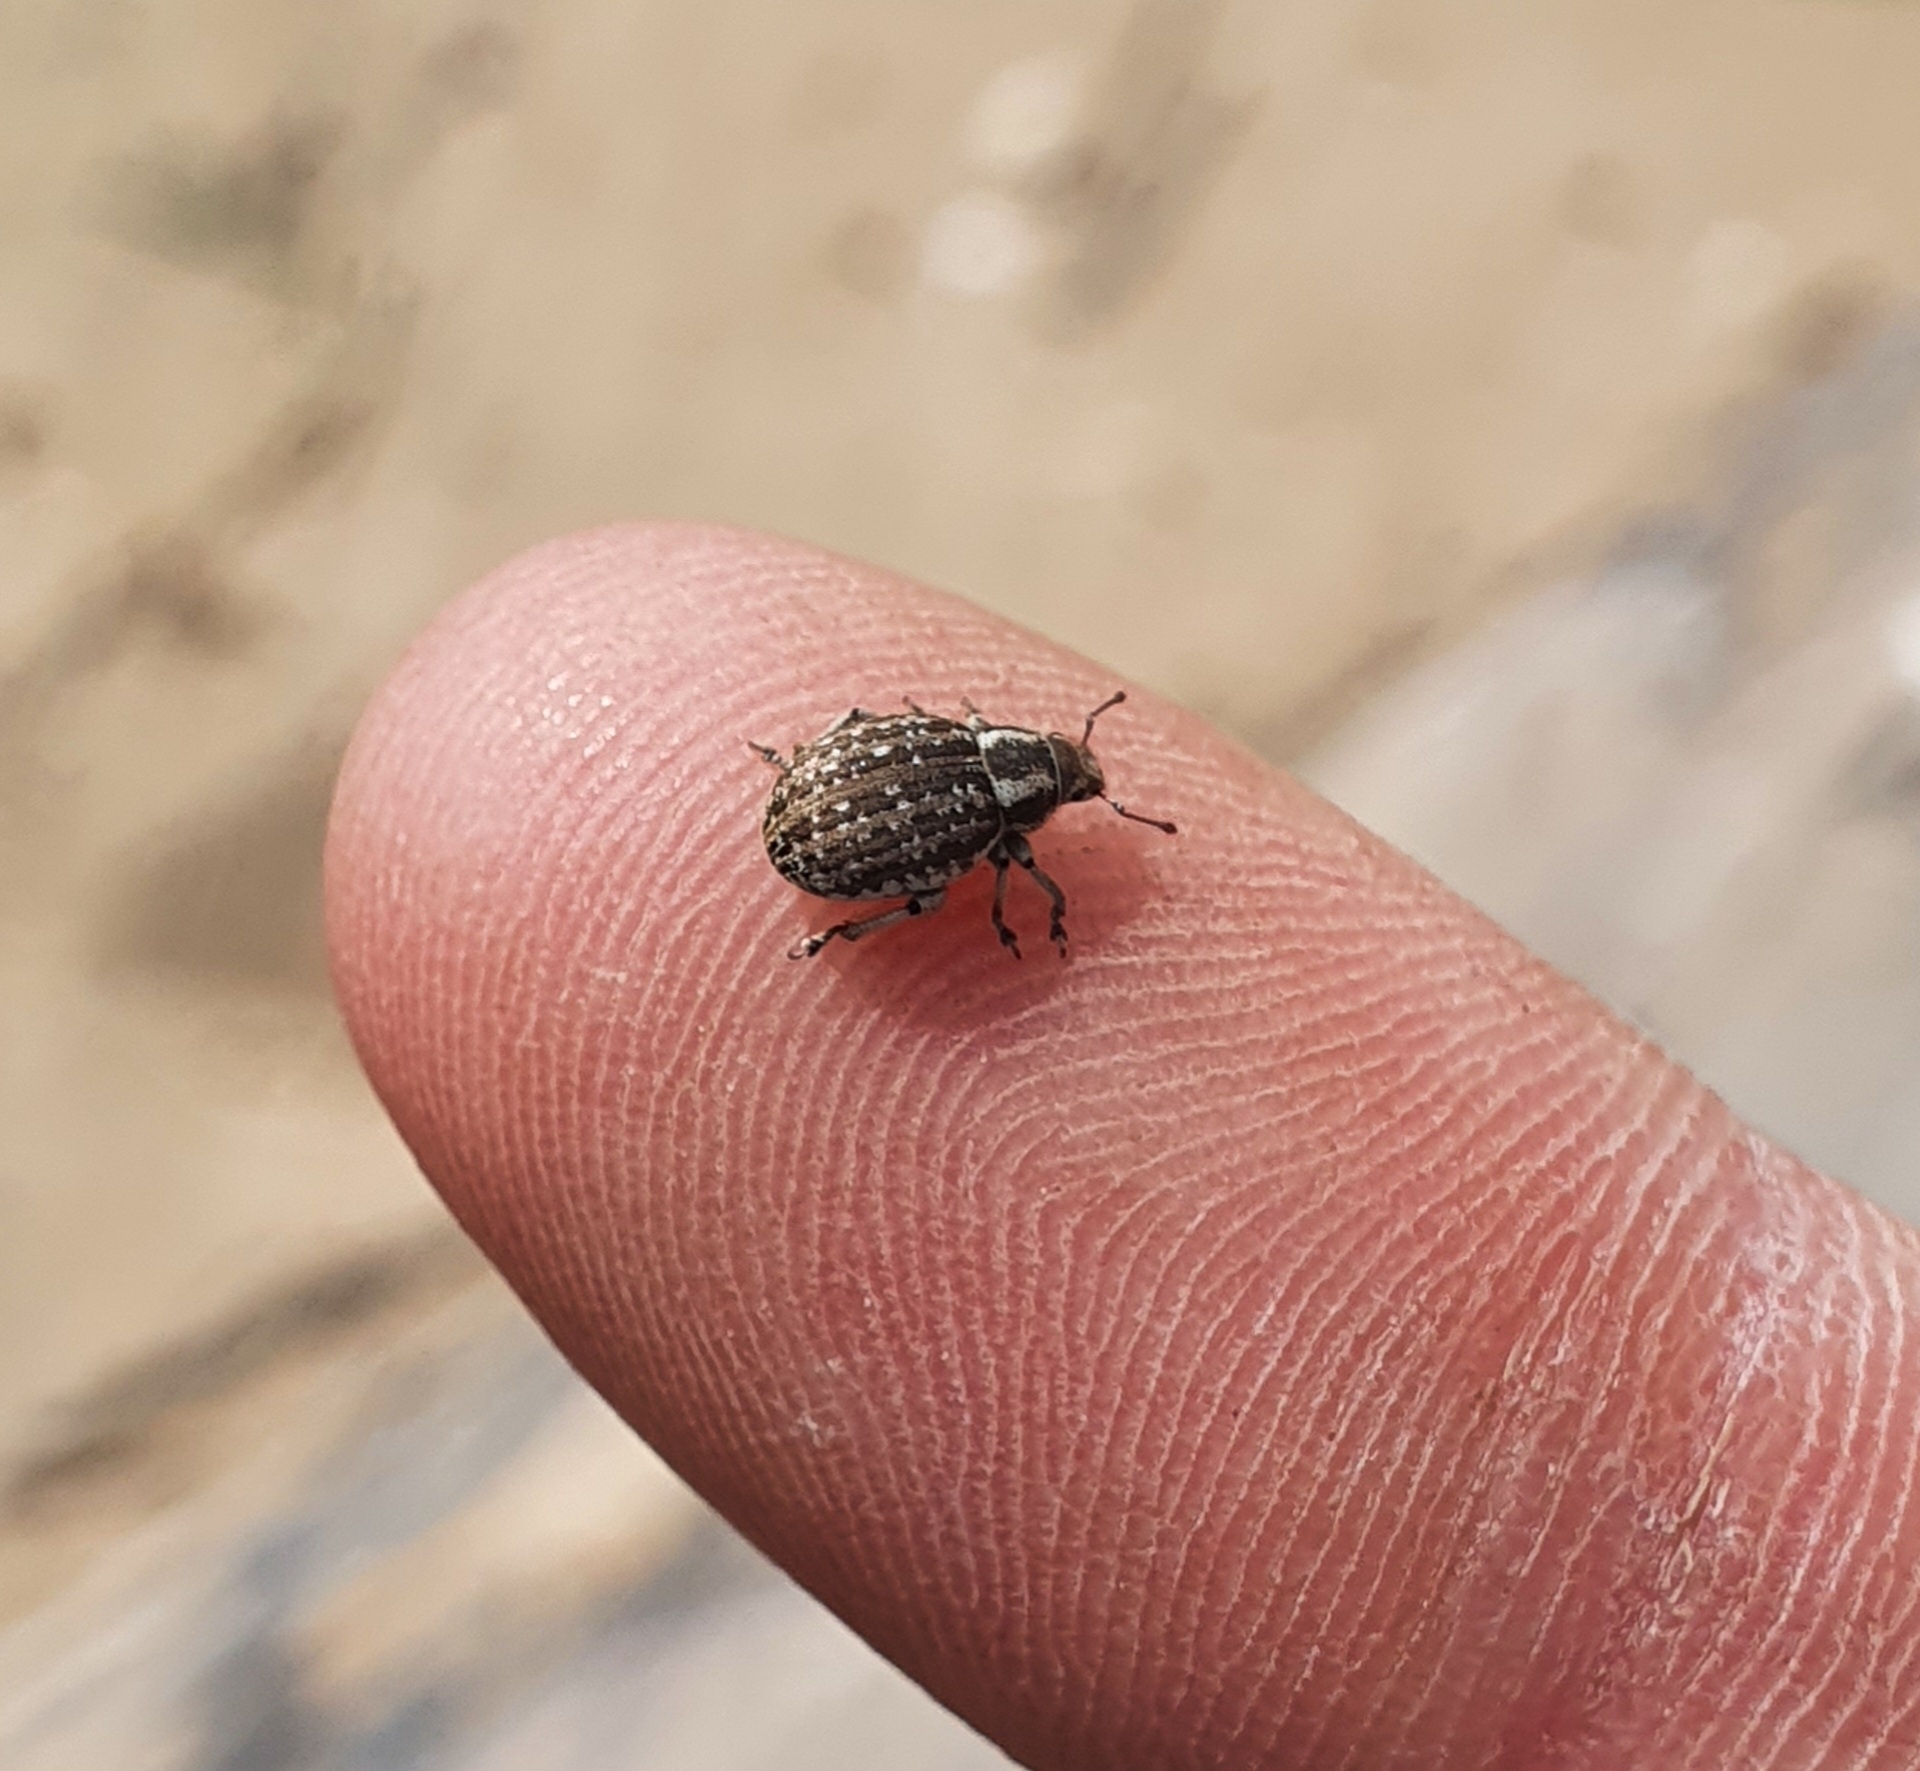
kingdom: Animalia
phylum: Arthropoda
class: Insecta
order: Coleoptera
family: Curculionidae
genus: Philopedon
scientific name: Philopedon plagiatum
